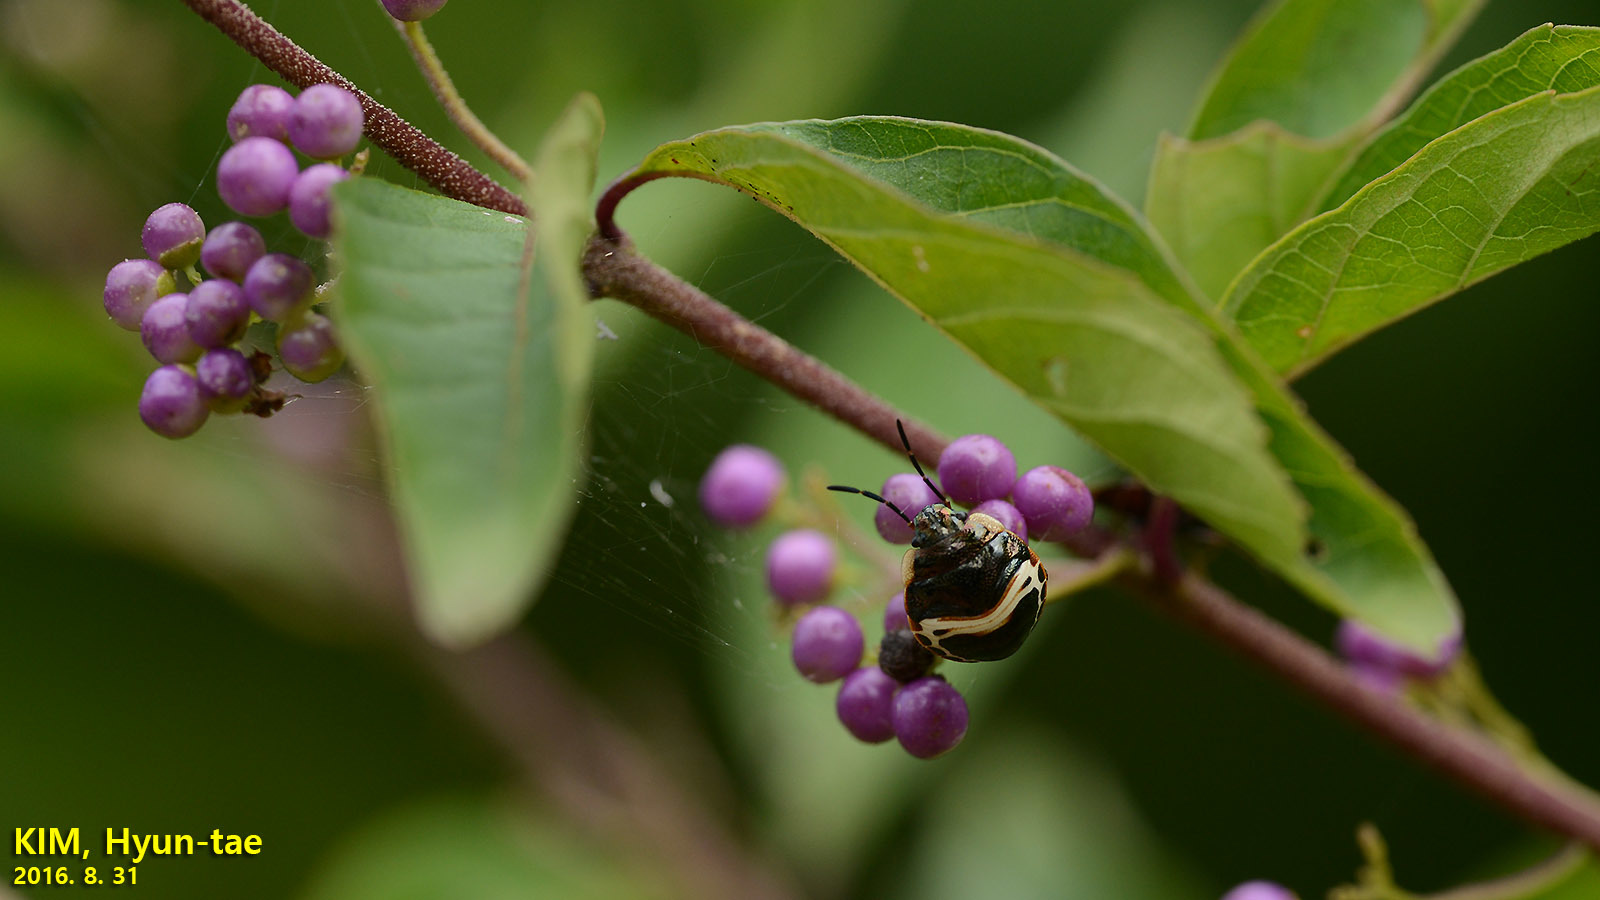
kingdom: Animalia
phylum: Arthropoda
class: Insecta
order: Hemiptera
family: Scutelleridae
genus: Poecilocoris
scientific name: Poecilocoris lewisi
